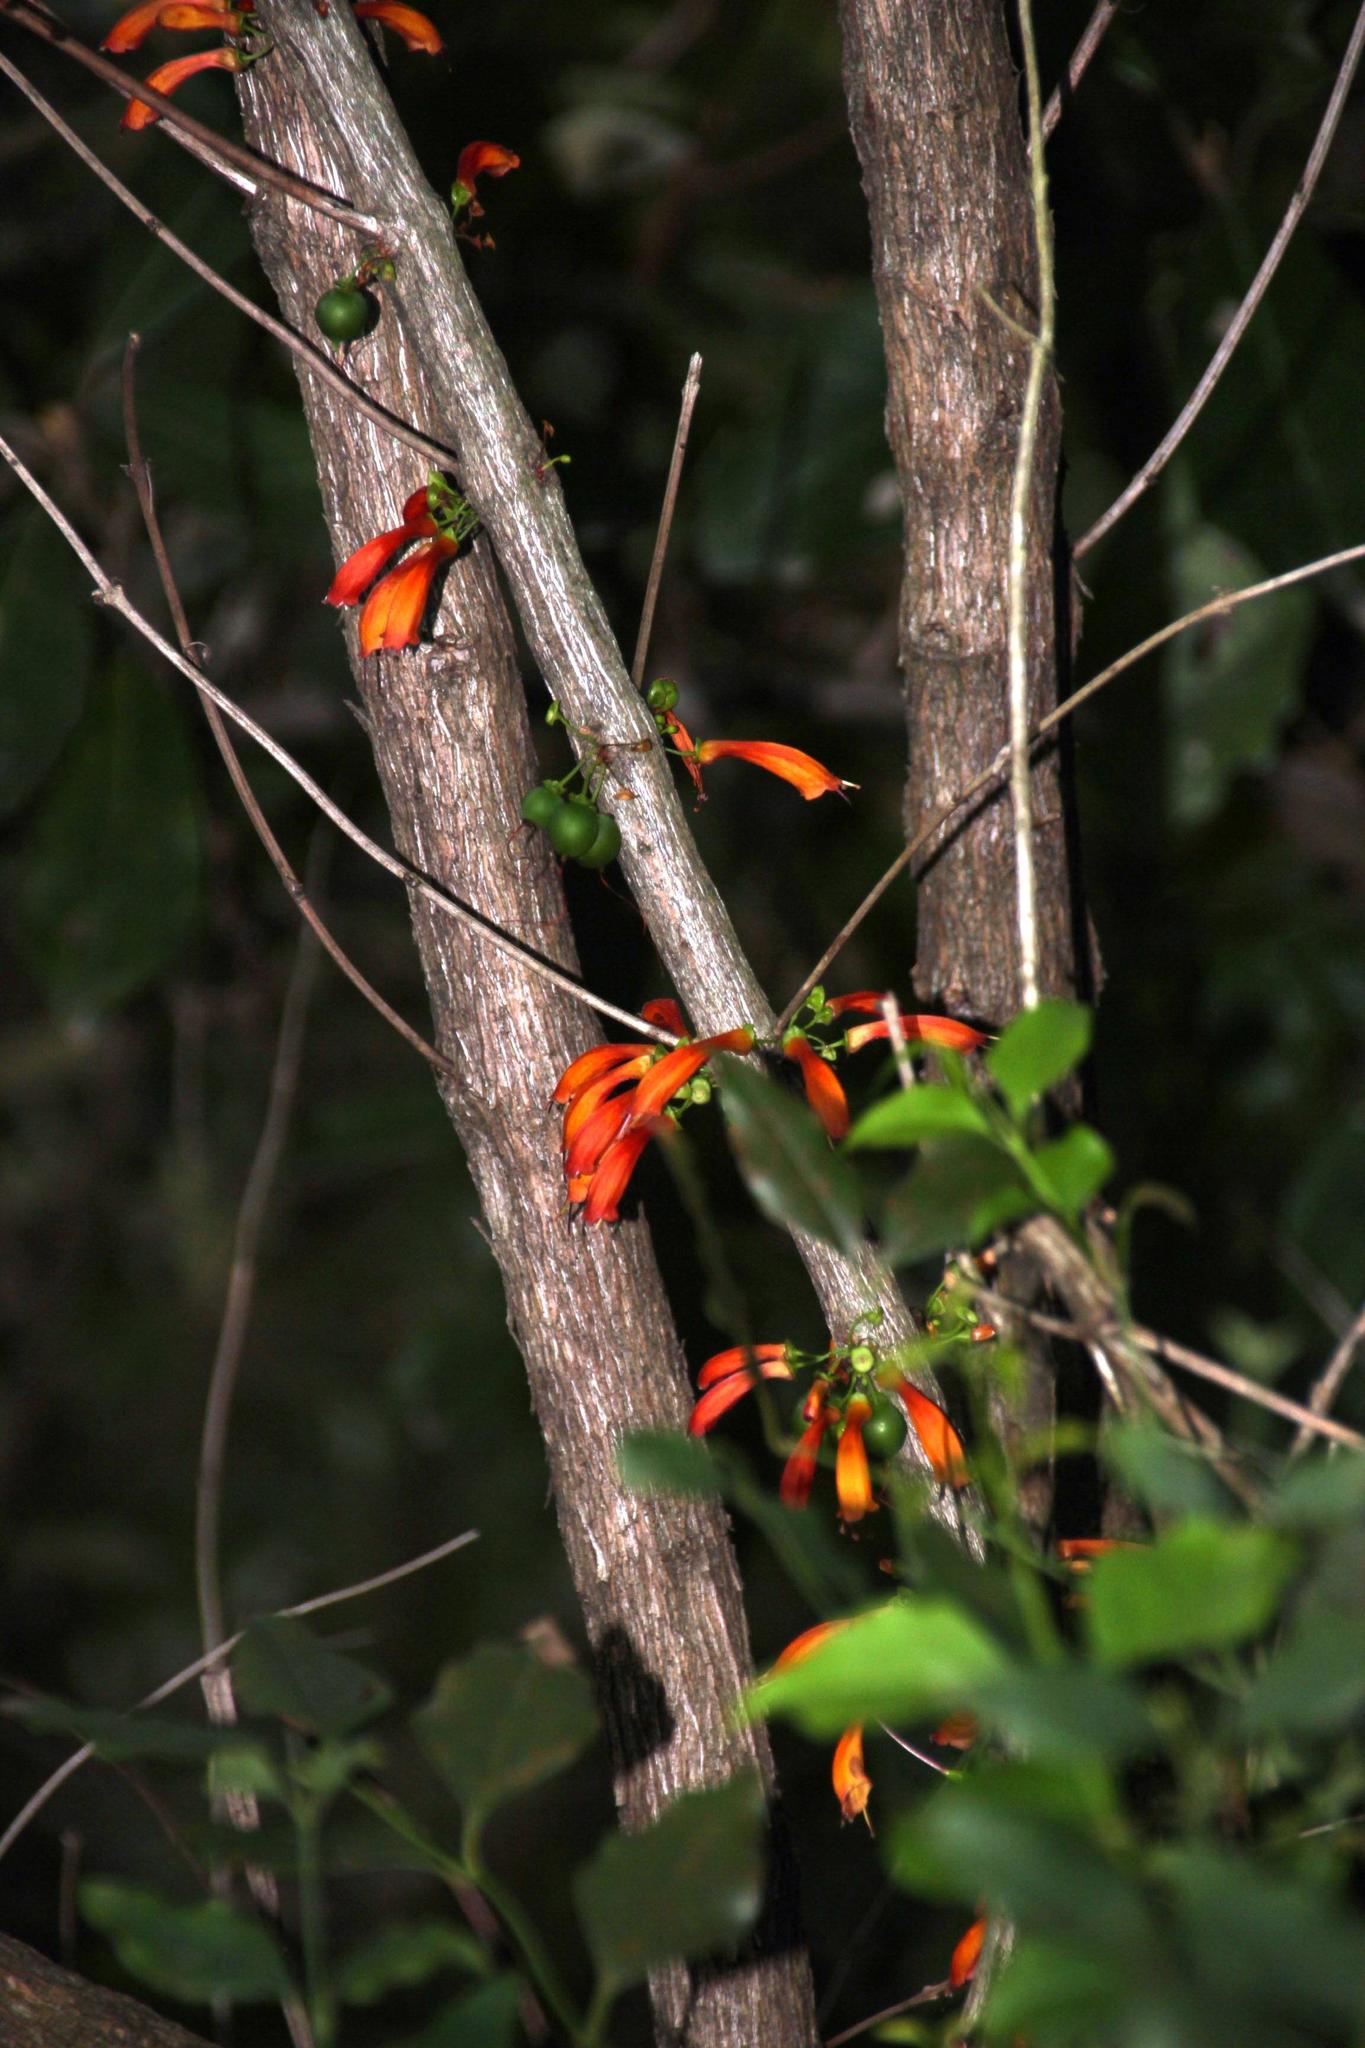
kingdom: Plantae
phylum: Tracheophyta
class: Magnoliopsida
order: Lamiales
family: Stilbaceae
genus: Halleria
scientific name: Halleria lucida
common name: Tree fuschia
